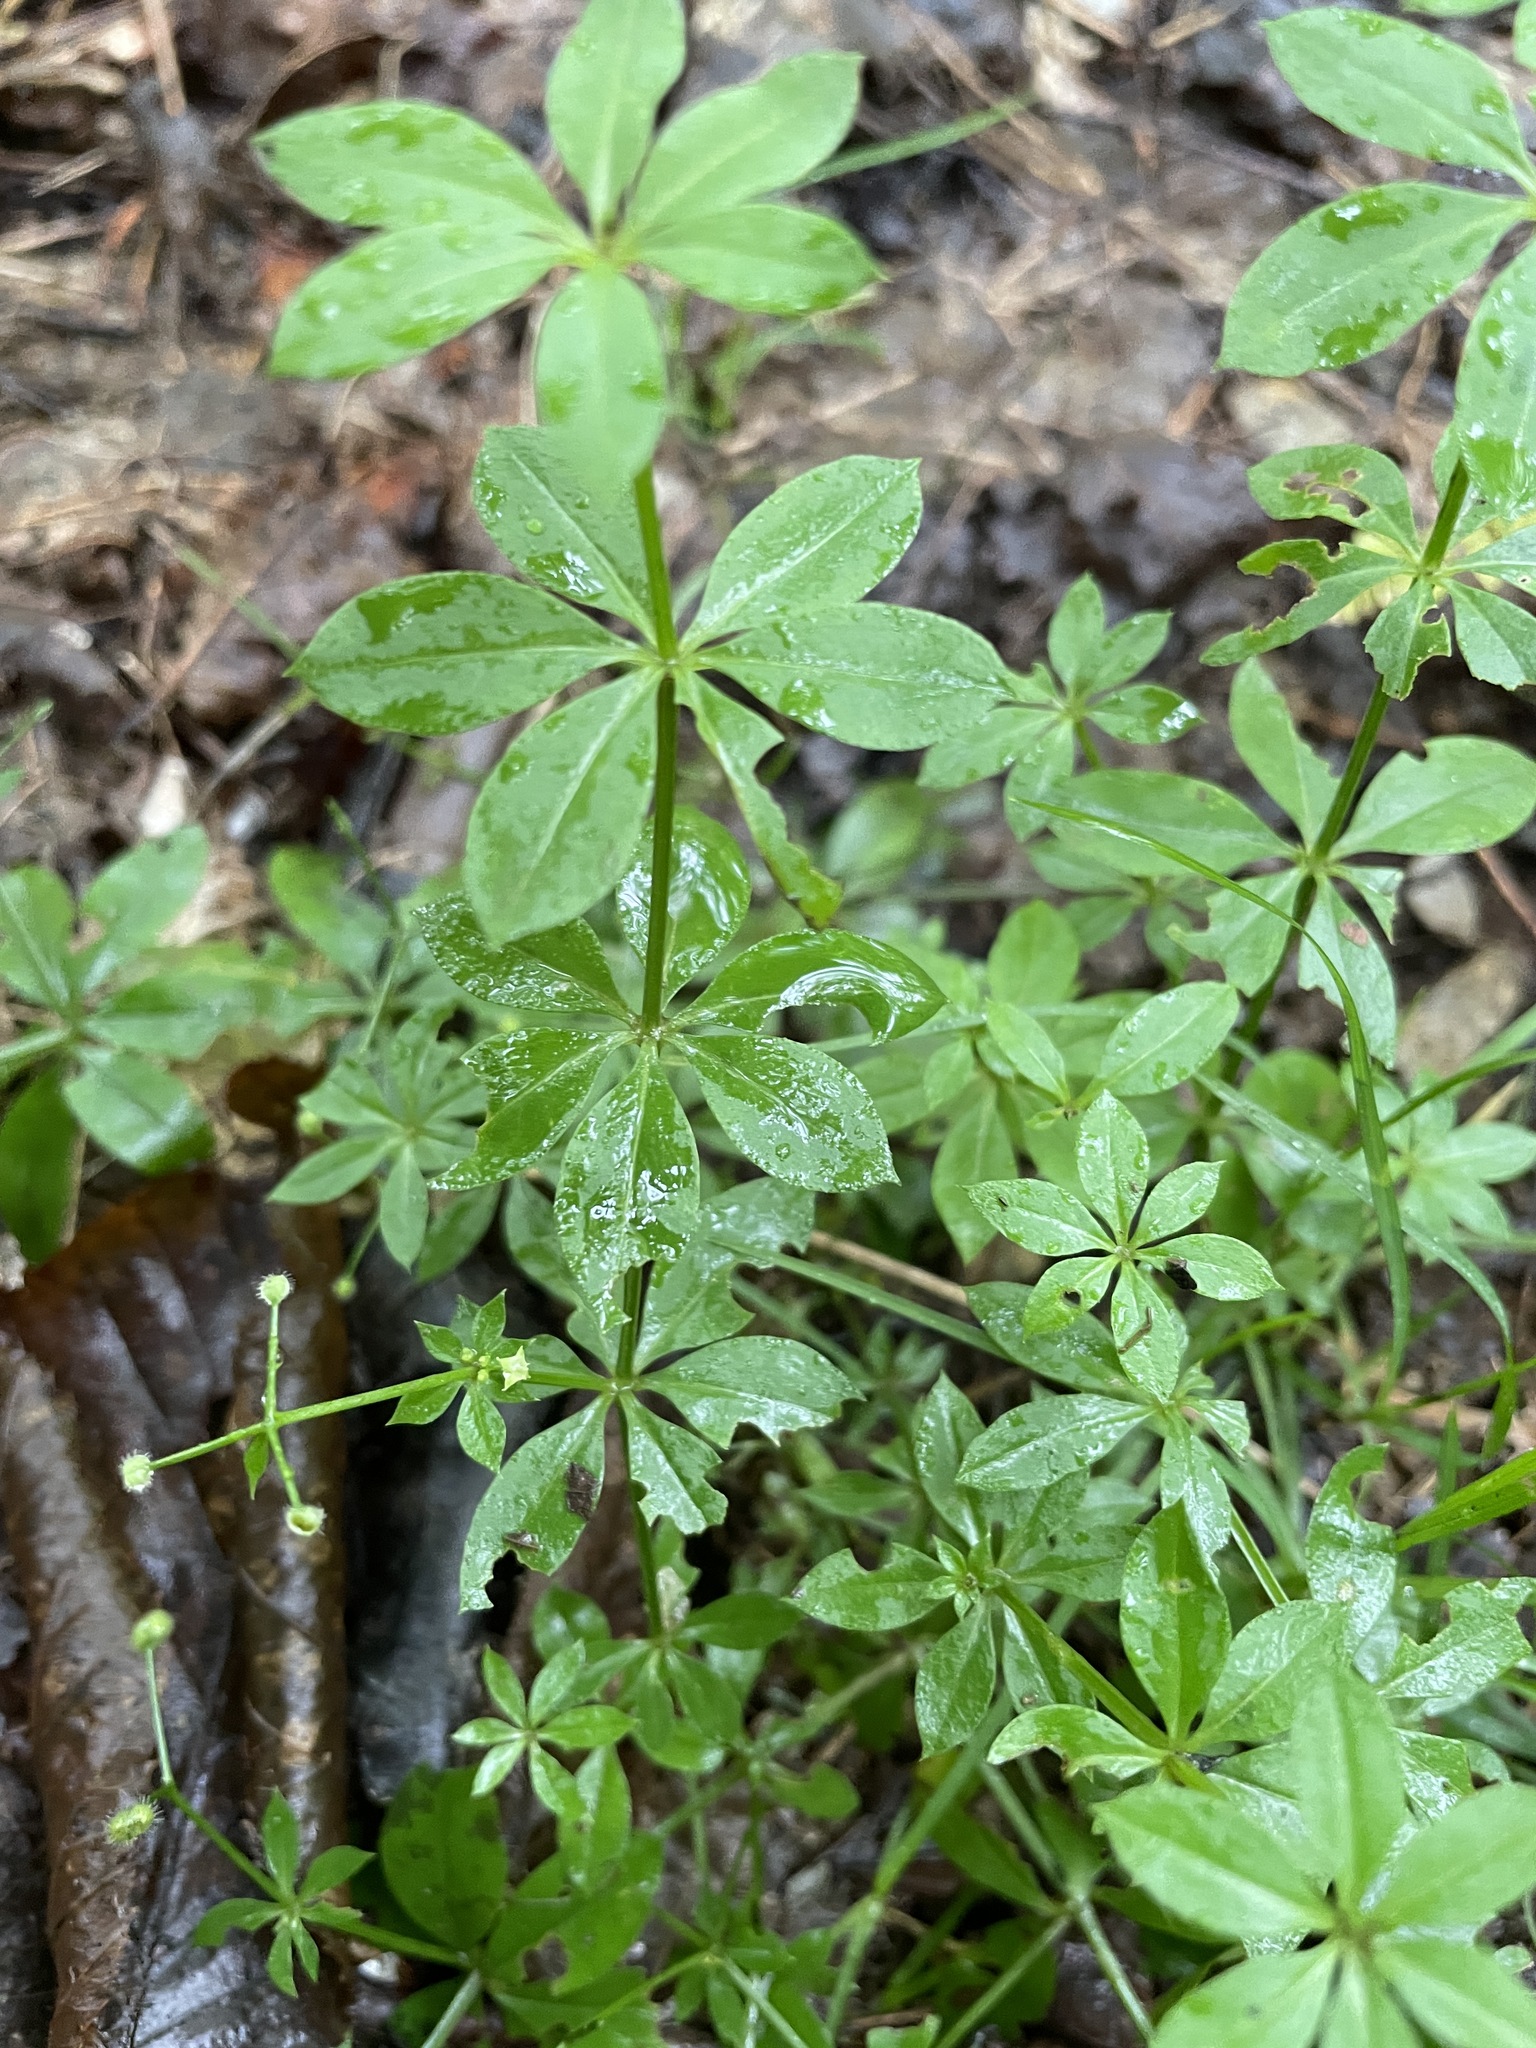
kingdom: Plantae
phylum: Tracheophyta
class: Magnoliopsida
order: Gentianales
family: Rubiaceae
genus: Galium
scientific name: Galium triflorum
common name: Fragrant bedstraw
